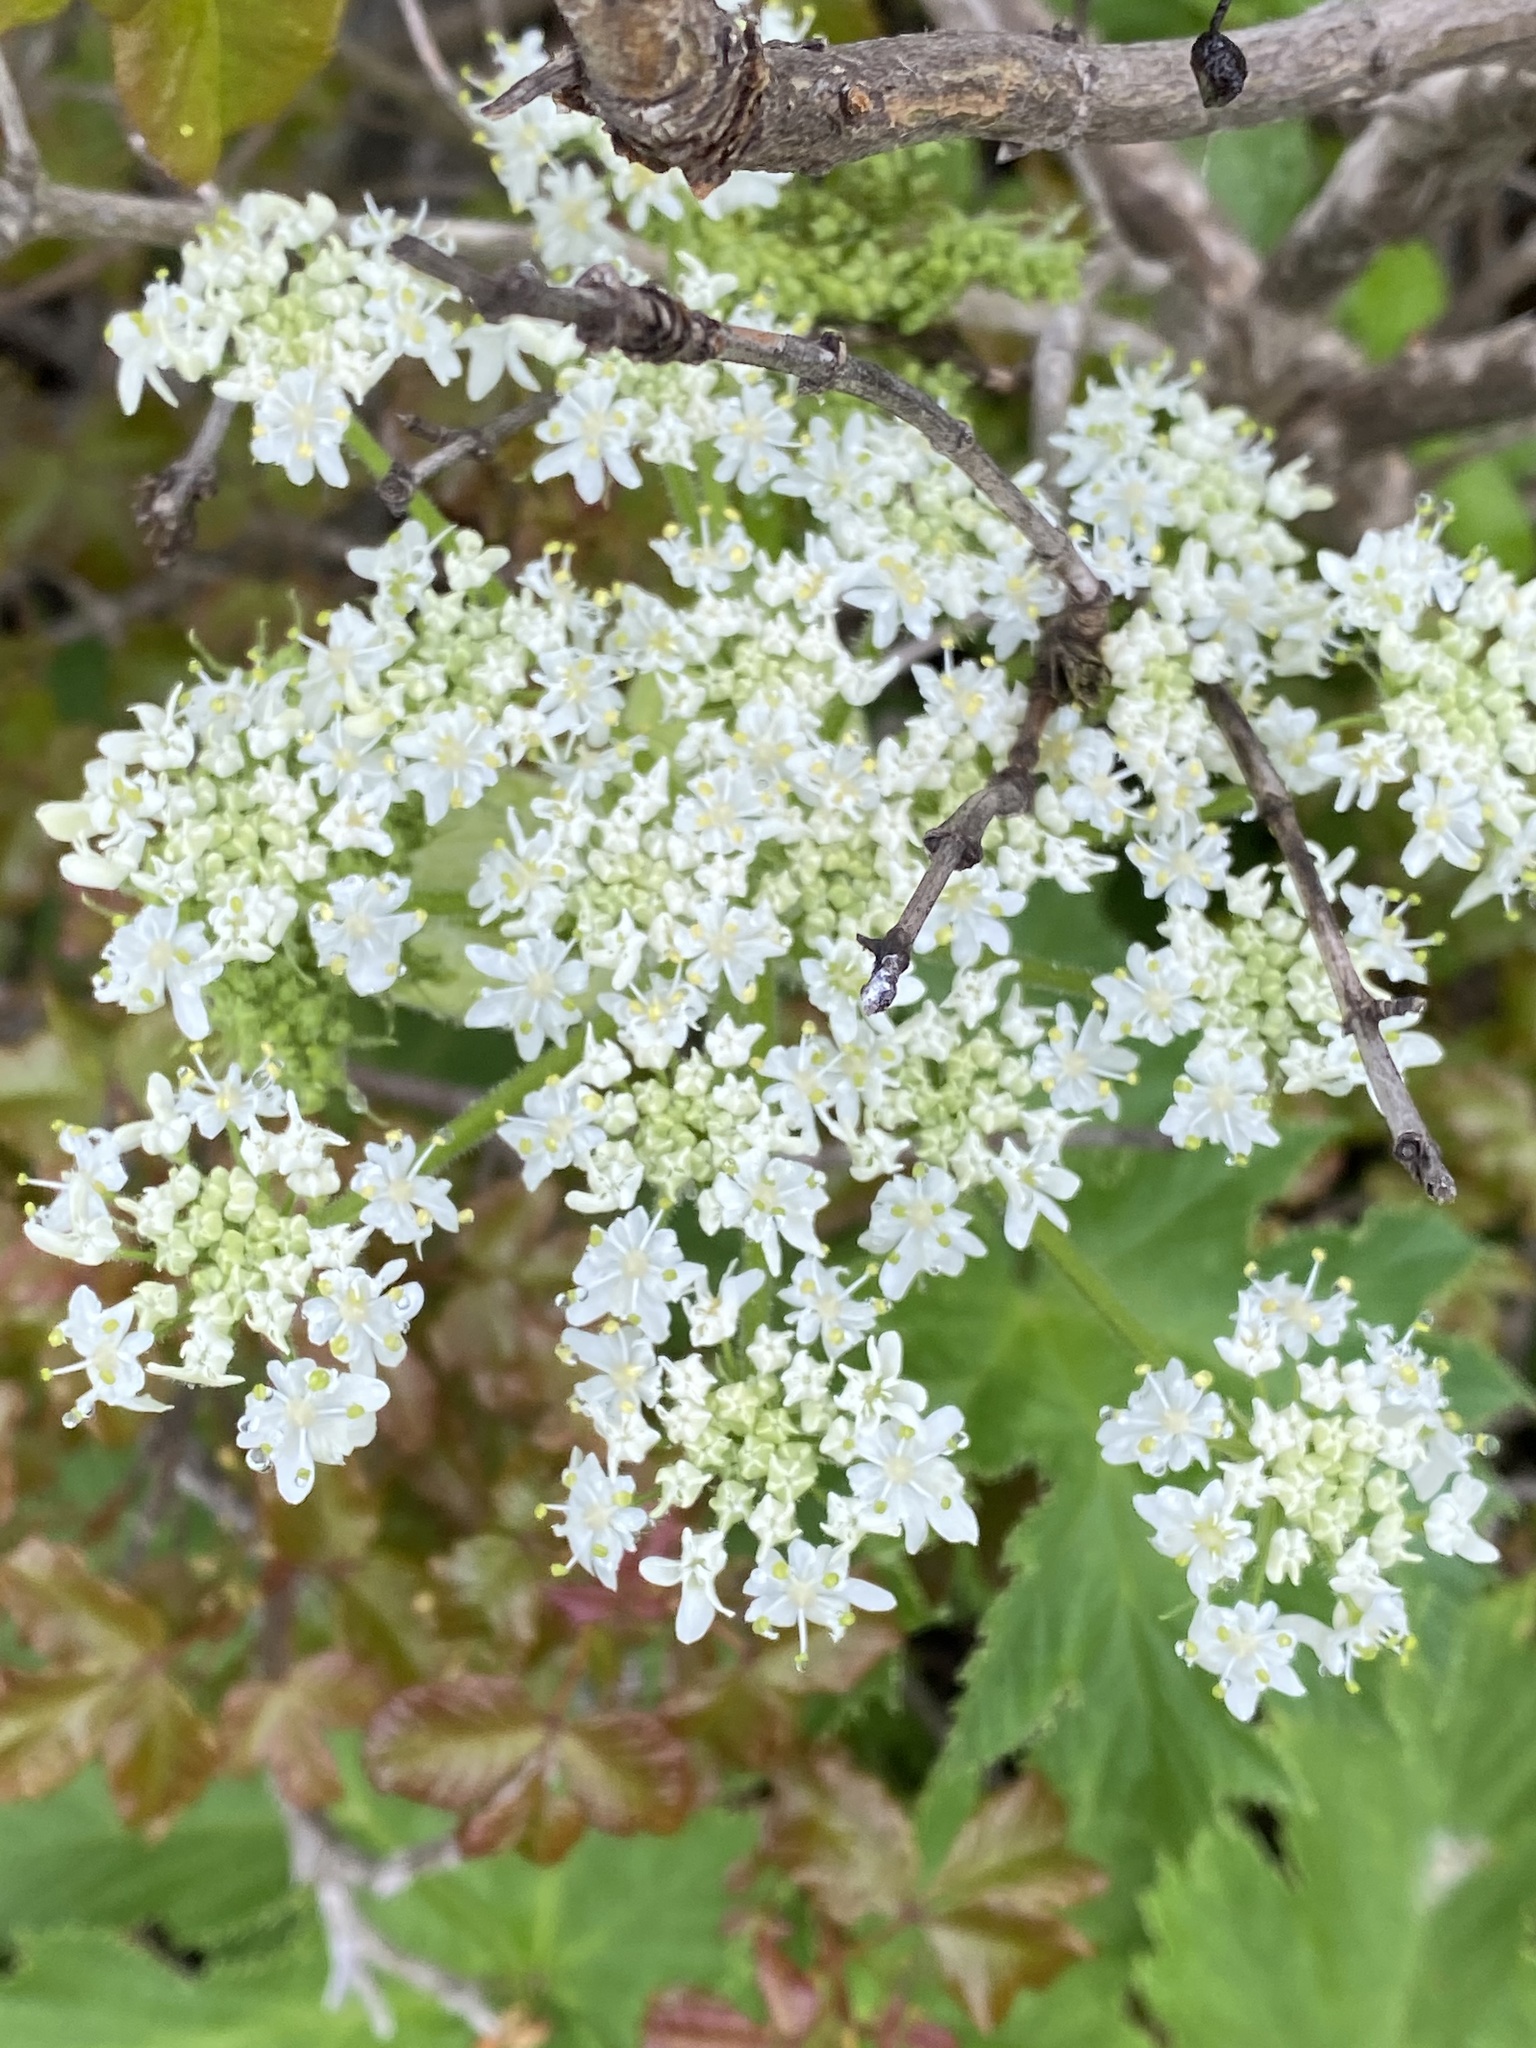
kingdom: Plantae
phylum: Tracheophyta
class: Magnoliopsida
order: Apiales
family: Apiaceae
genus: Heracleum
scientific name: Heracleum maximum
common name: American cow parsnip
